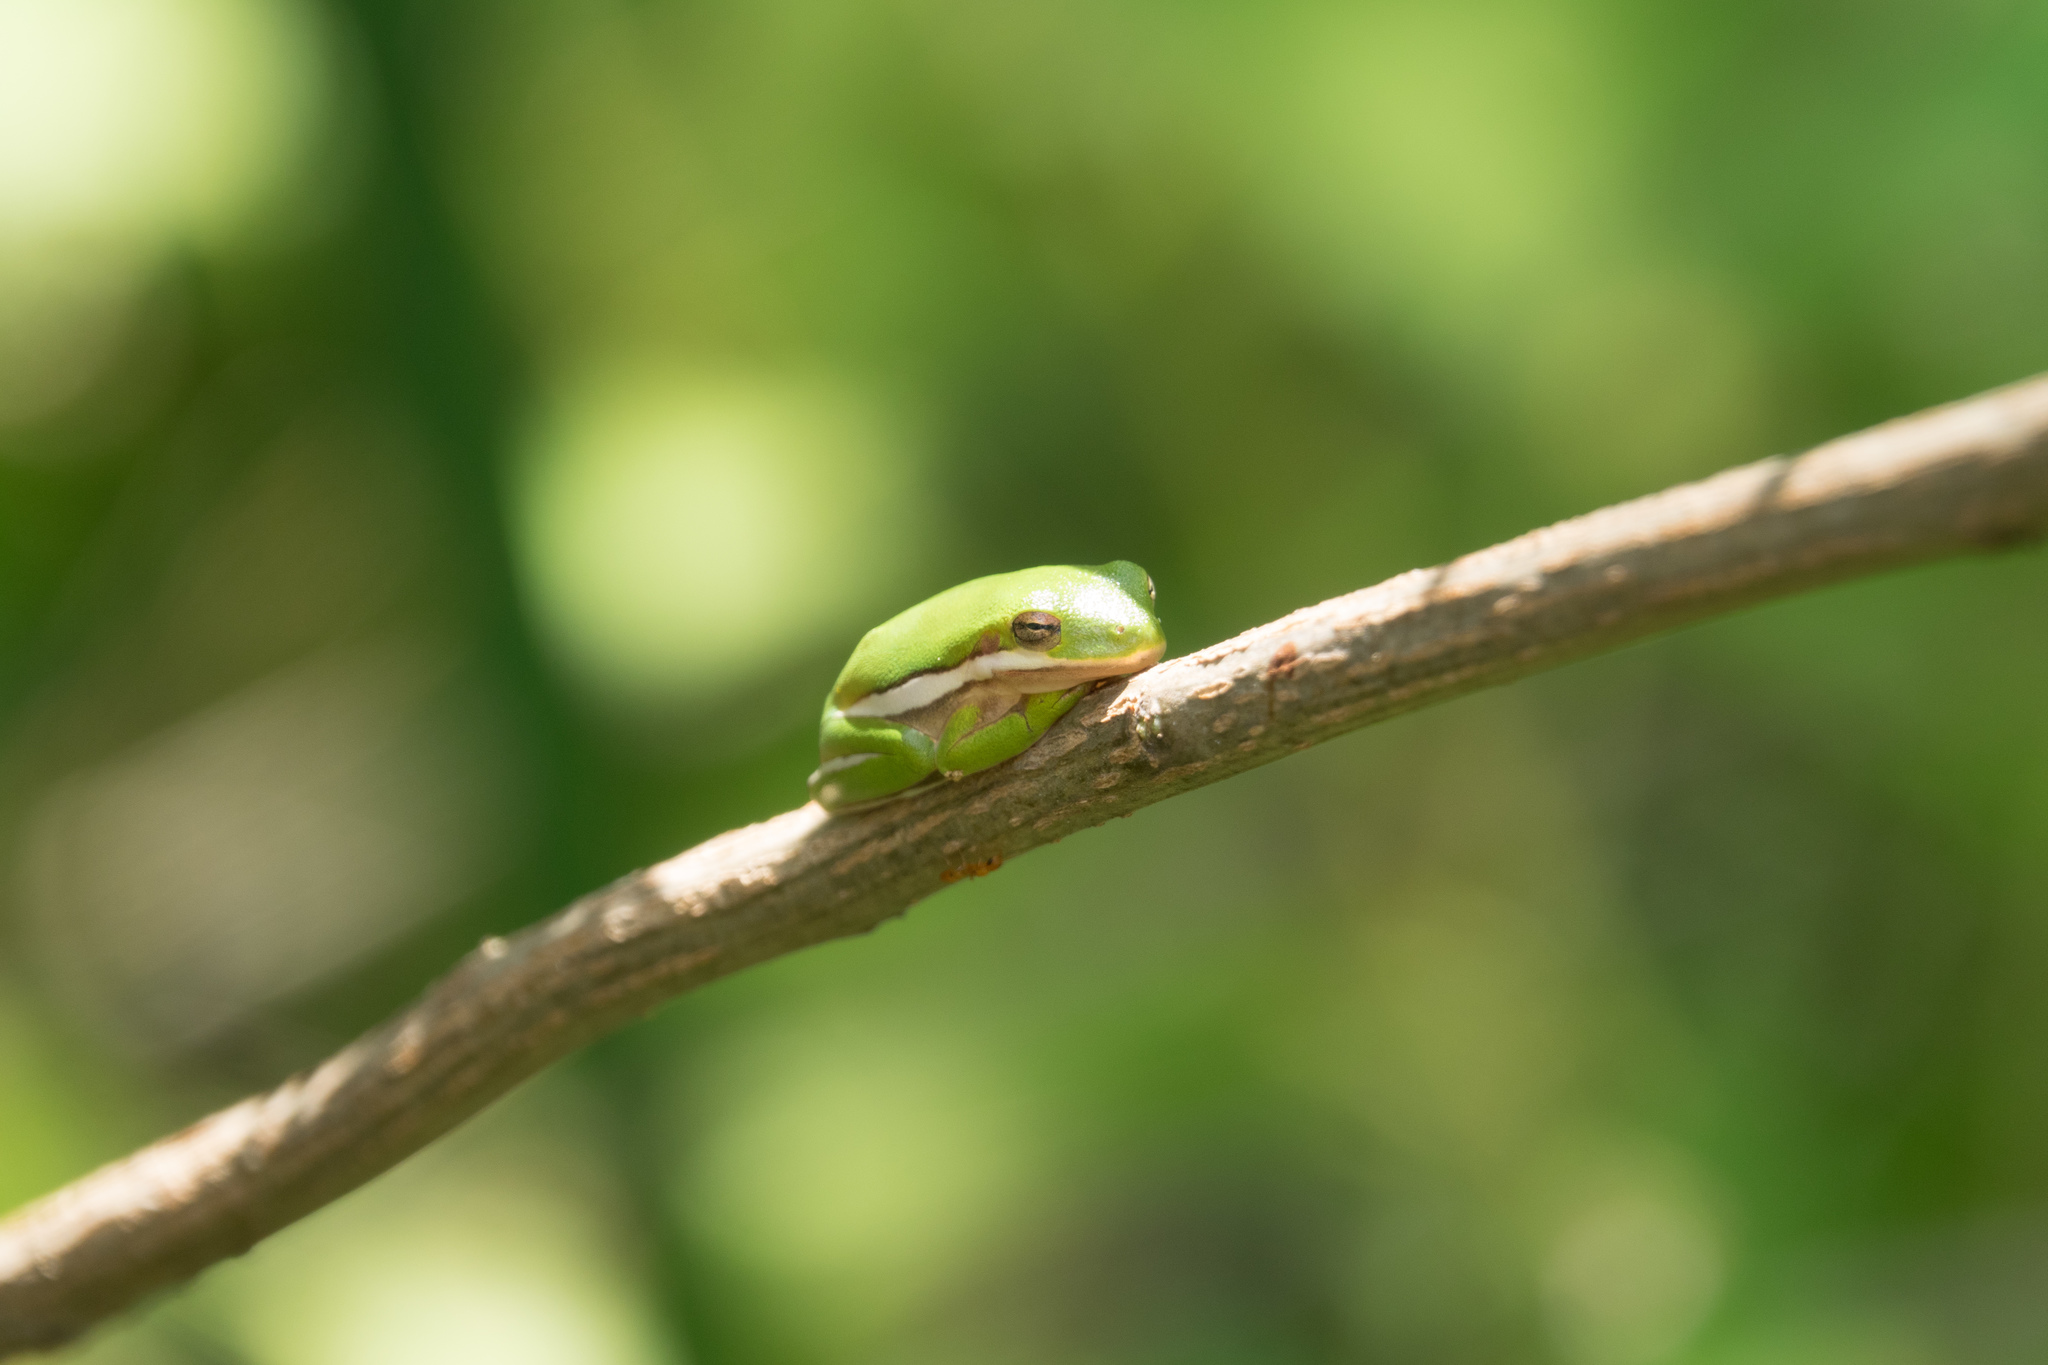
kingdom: Animalia
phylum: Chordata
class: Amphibia
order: Anura
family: Hylidae
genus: Dryophytes
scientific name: Dryophytes cinereus
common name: Green treefrog
